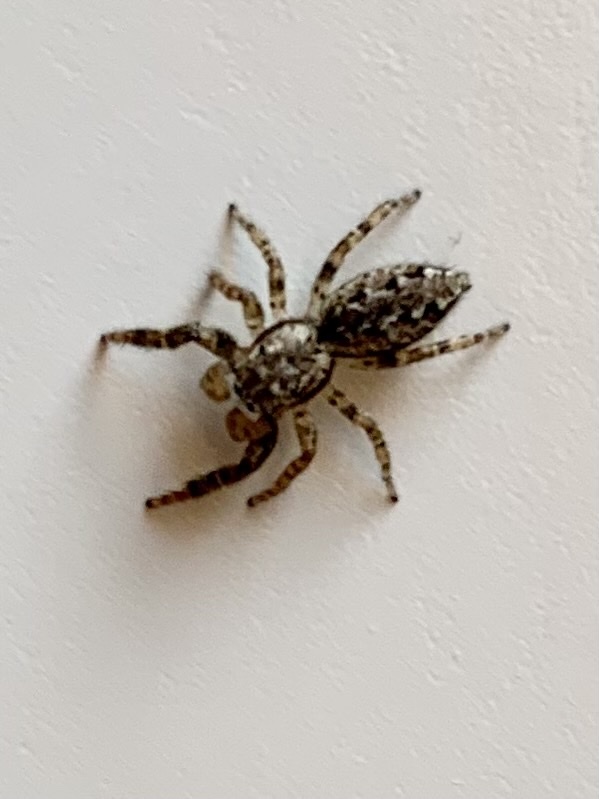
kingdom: Animalia
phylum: Arthropoda
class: Arachnida
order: Araneae
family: Salticidae
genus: Marpissa
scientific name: Marpissa muscosa
